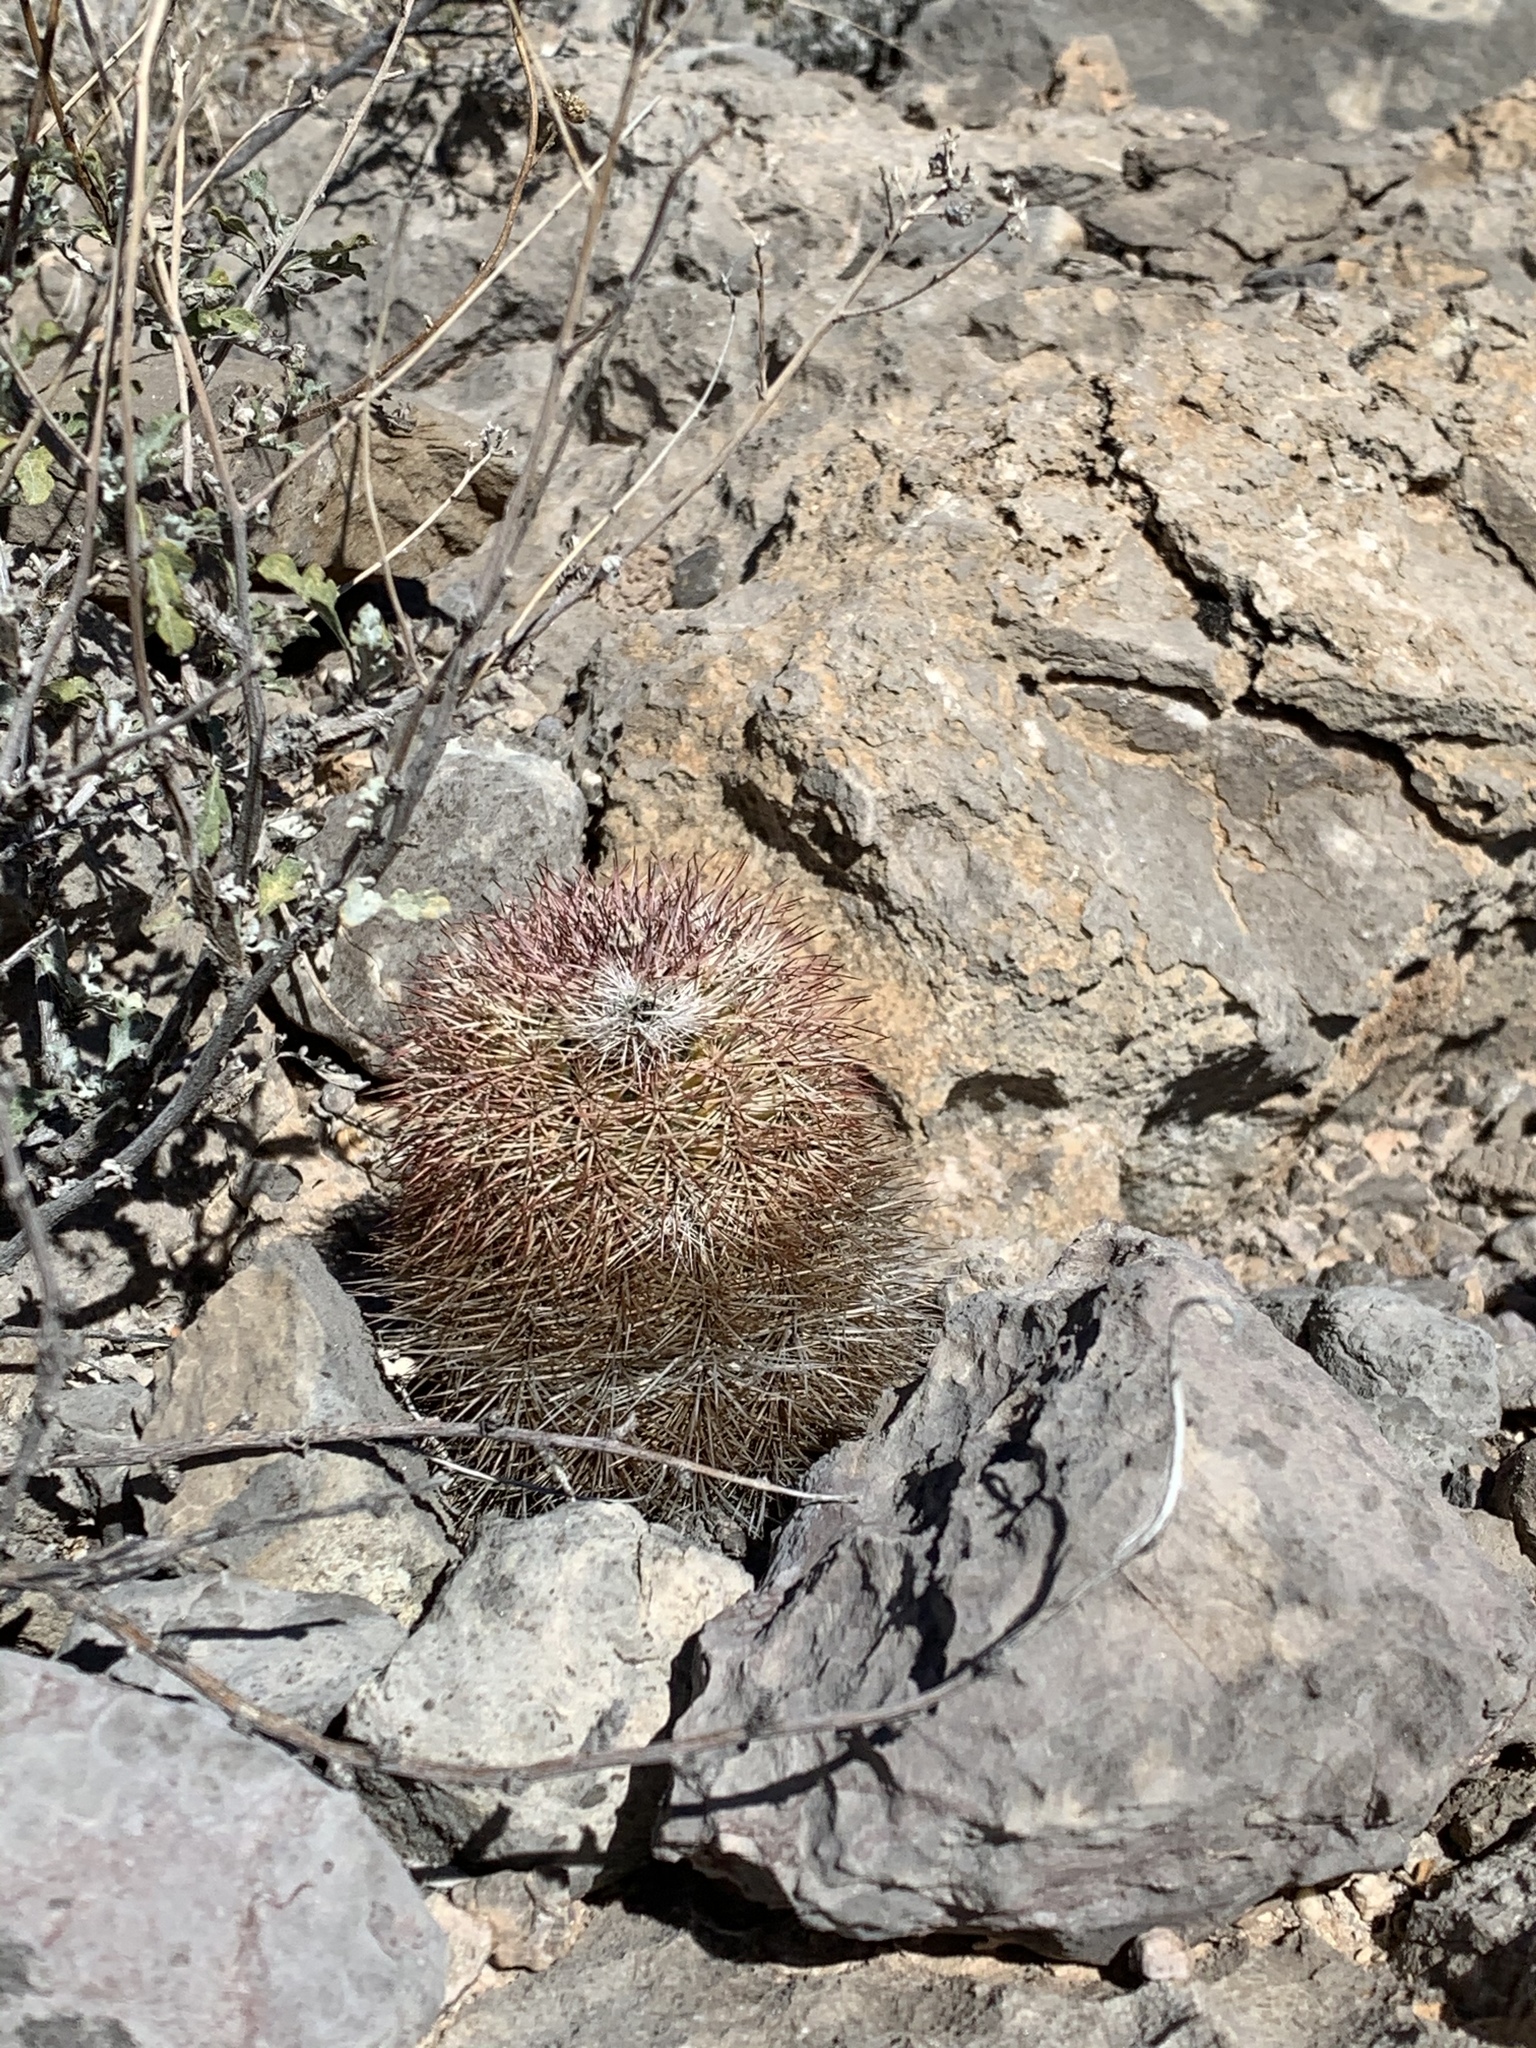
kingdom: Plantae
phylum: Tracheophyta
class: Magnoliopsida
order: Caryophyllales
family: Cactaceae
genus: Echinocereus
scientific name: Echinocereus dasyacanthus
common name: Spiny hedgehog cactus
